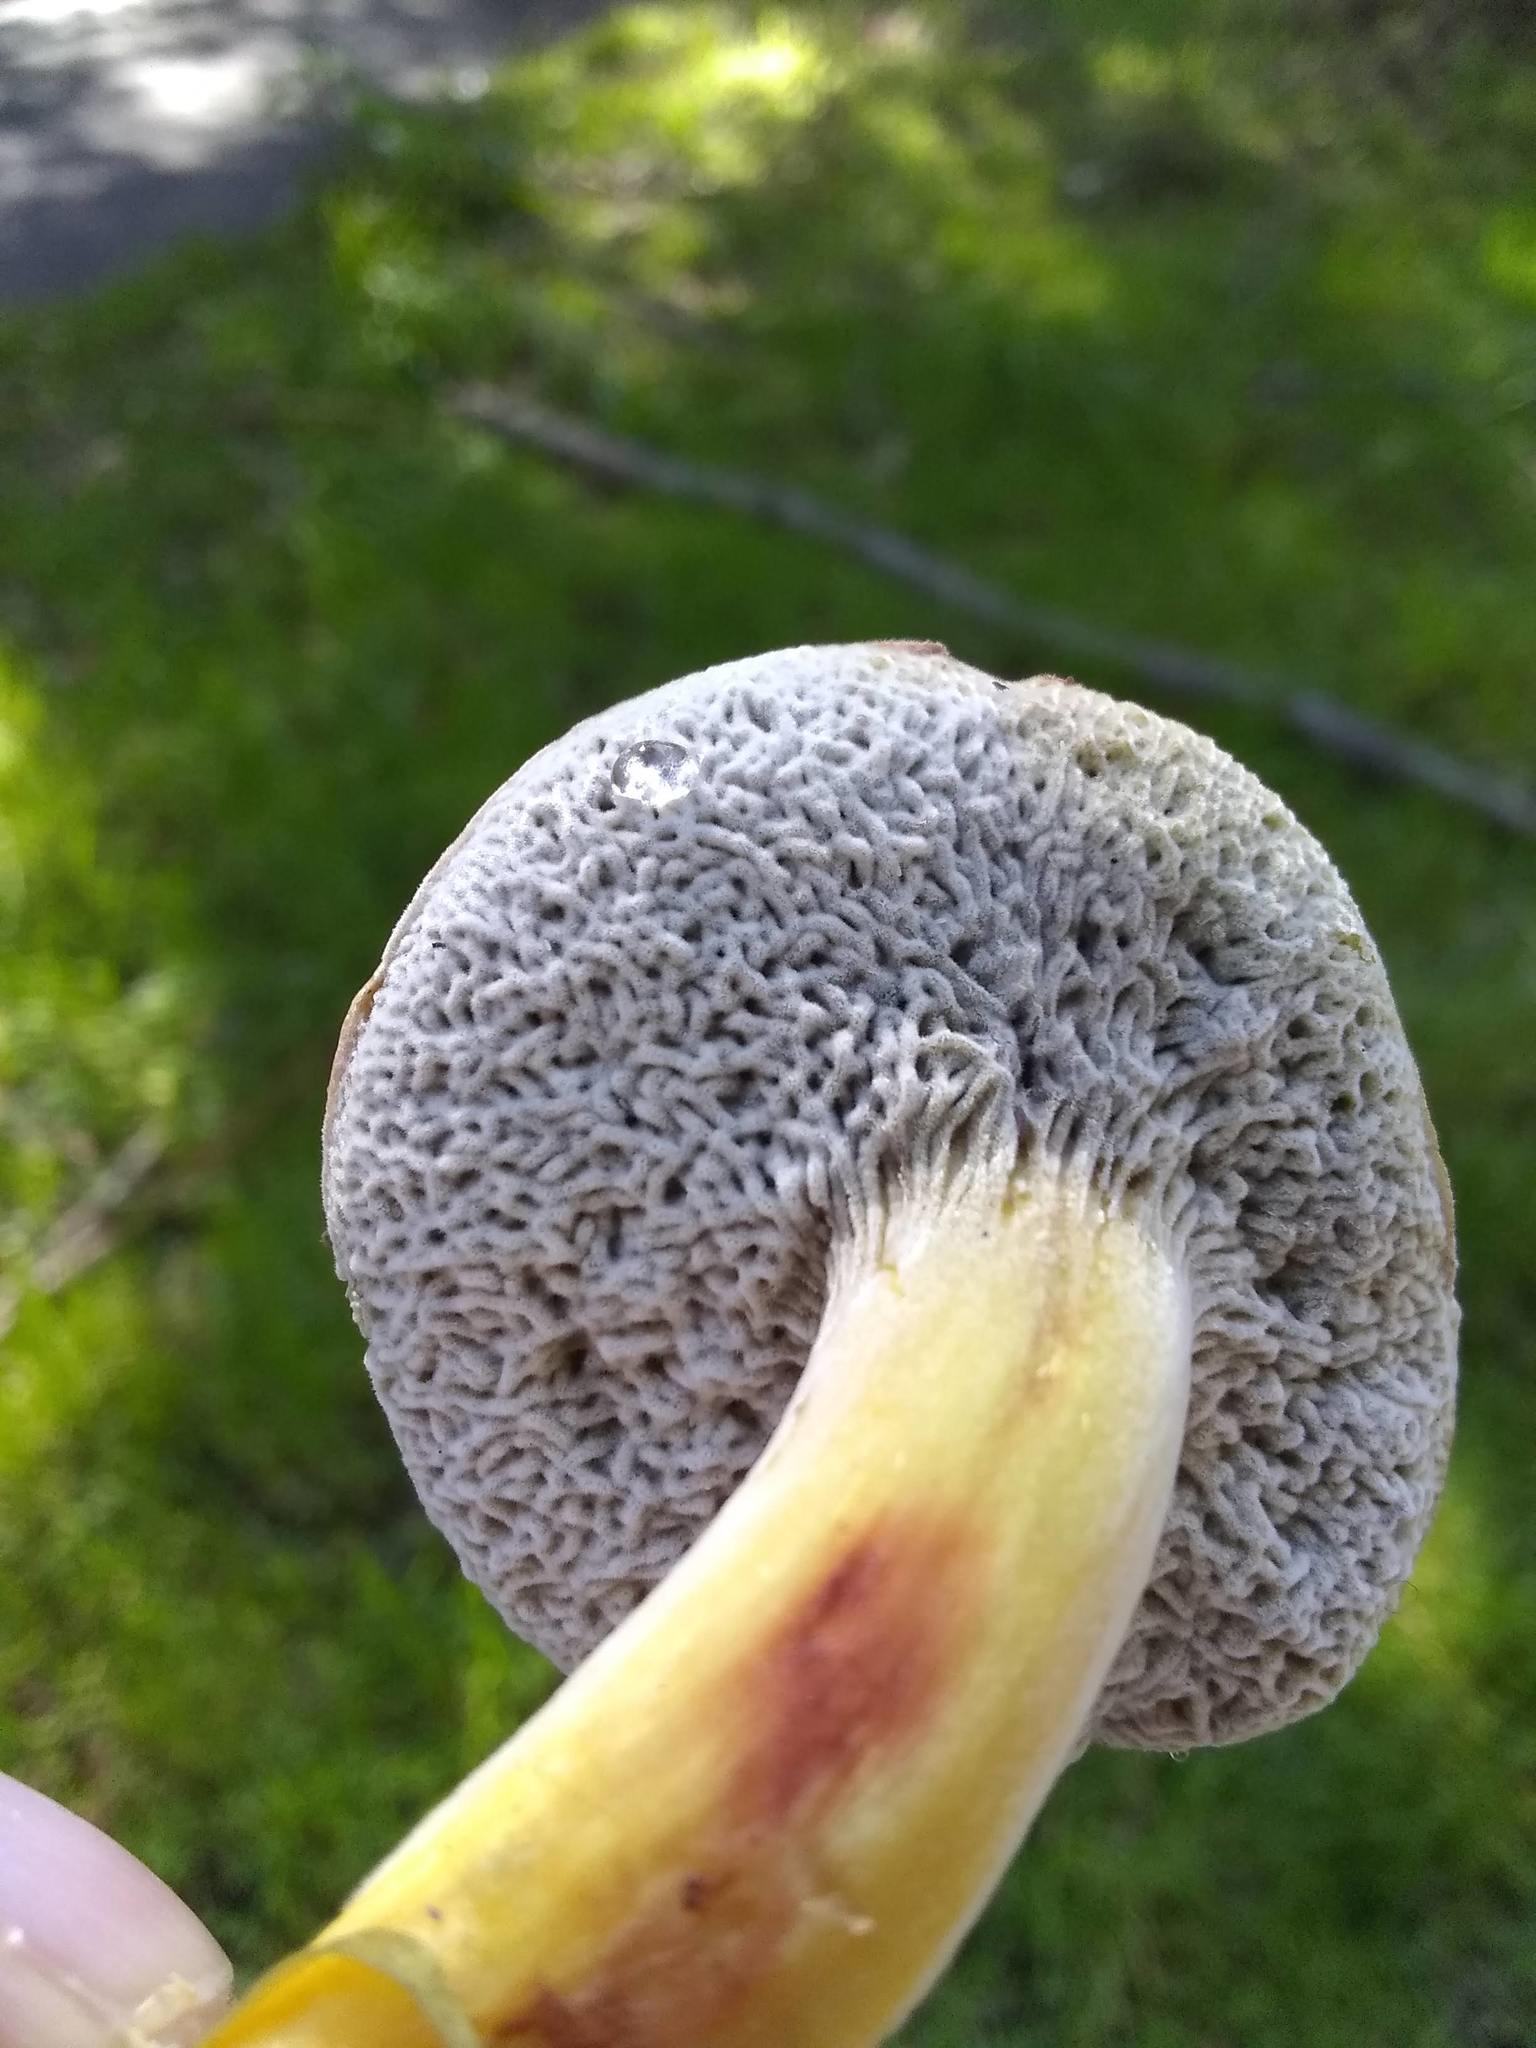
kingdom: Fungi
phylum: Ascomycota
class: Sordariomycetes
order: Hypocreales
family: Hypocreaceae
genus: Hypomyces
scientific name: Hypomyces microspermus
